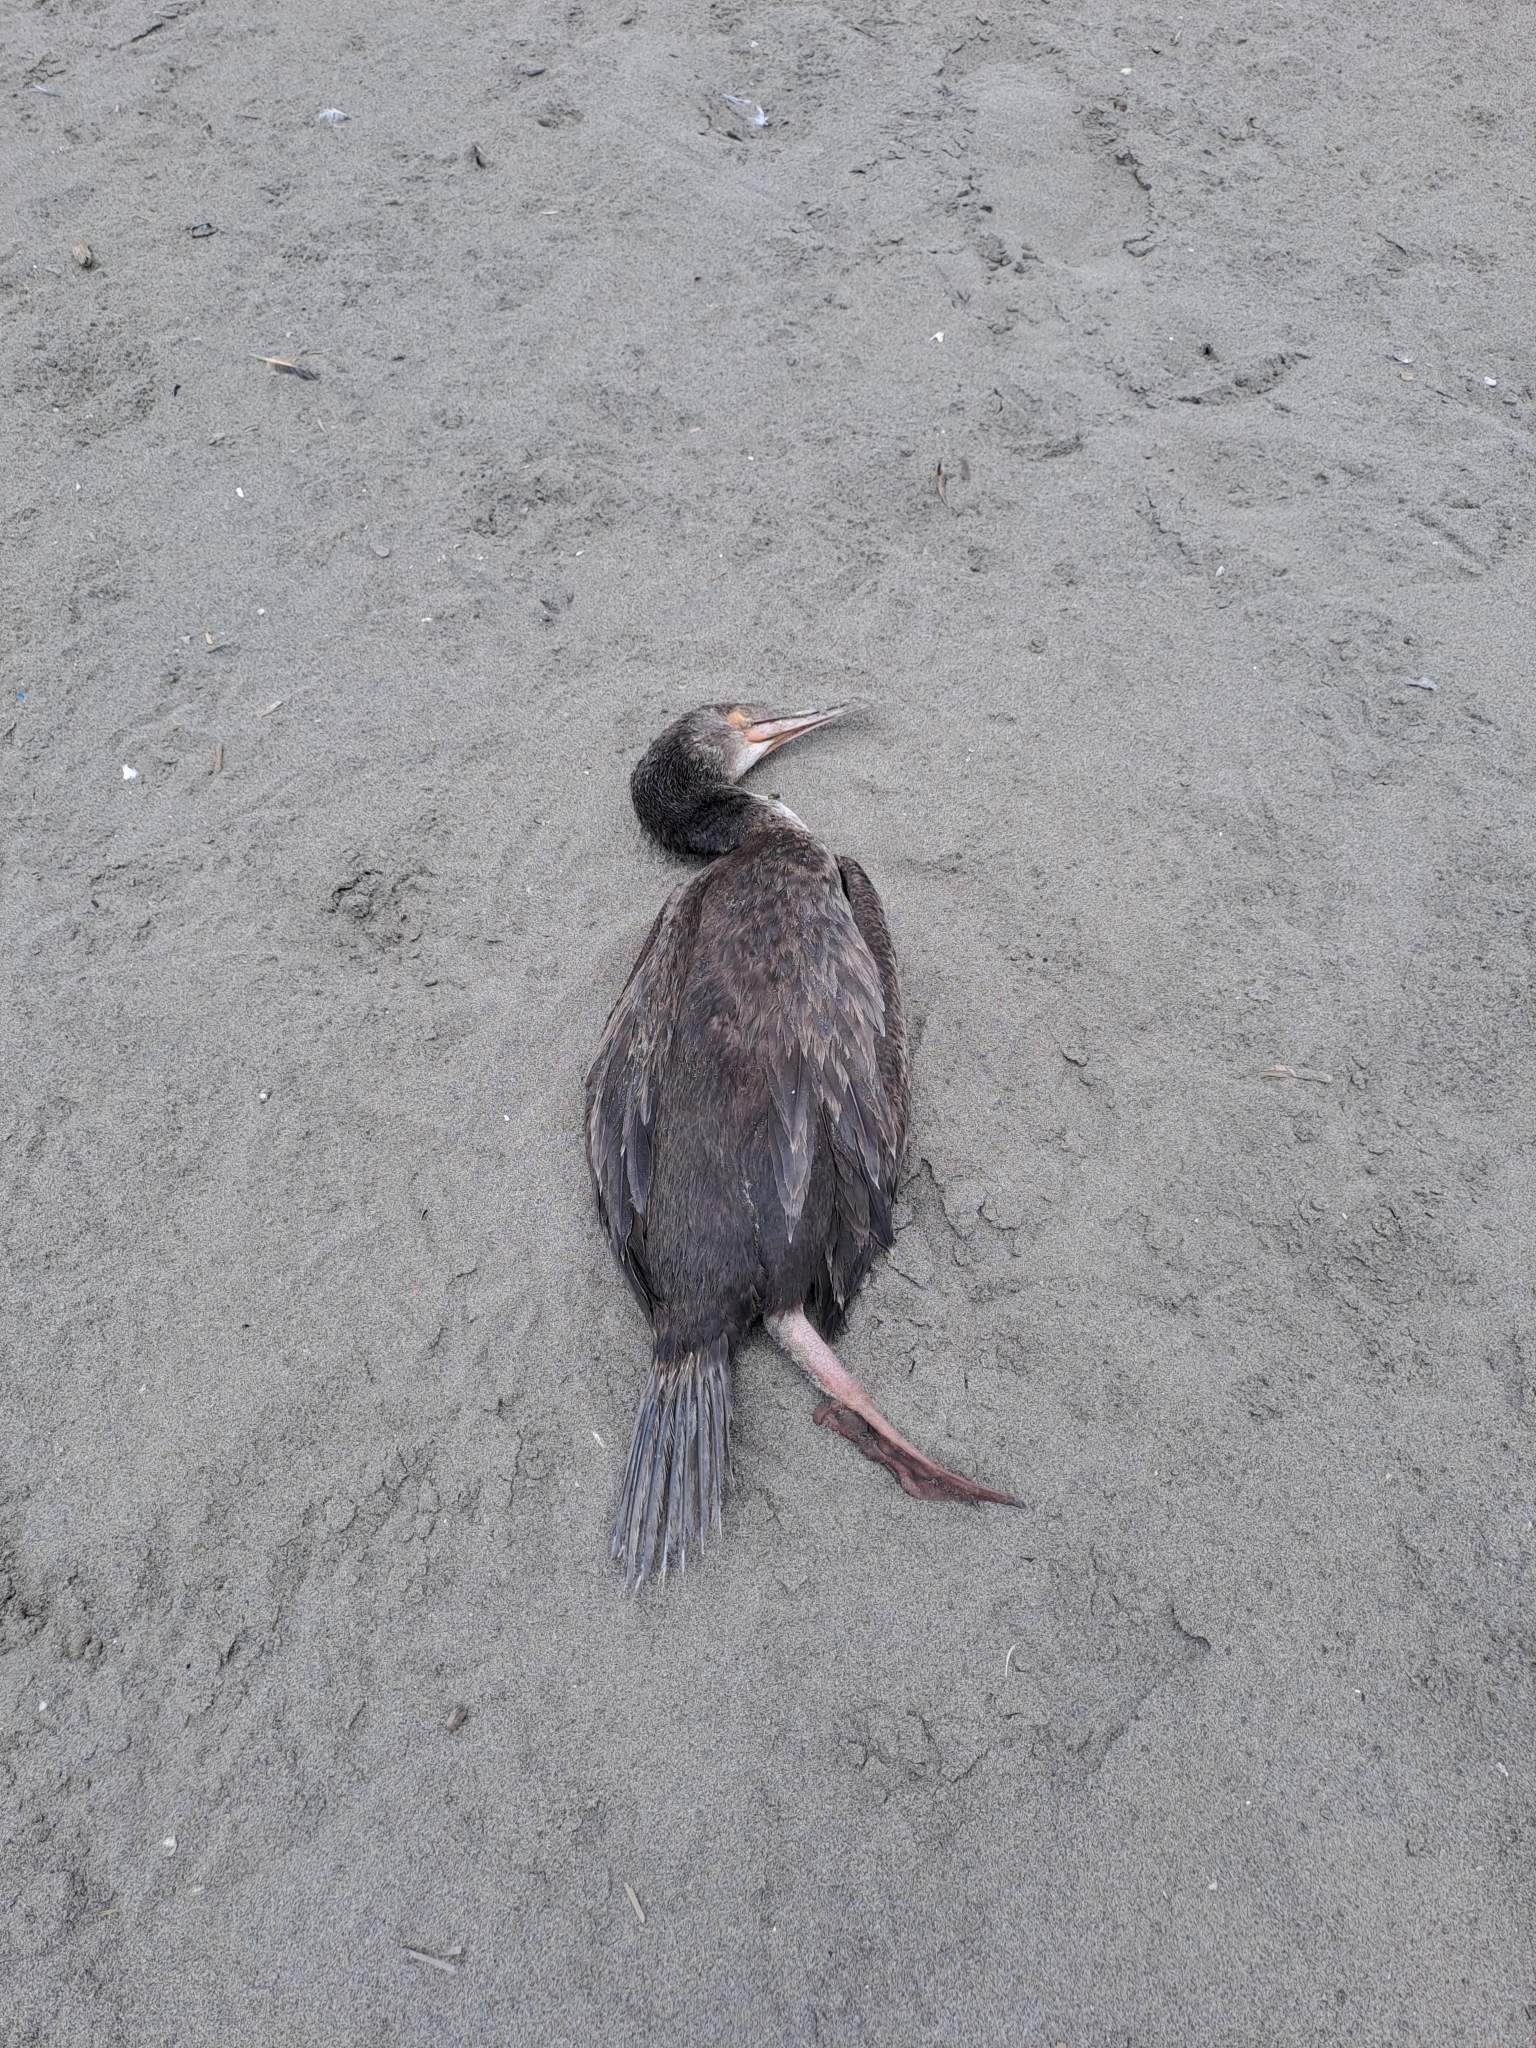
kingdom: Animalia
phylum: Chordata
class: Aves
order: Suliformes
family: Phalacrocoracidae
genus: Leucocarbo
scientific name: Leucocarbo bougainvillii
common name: Guanay cormorant
